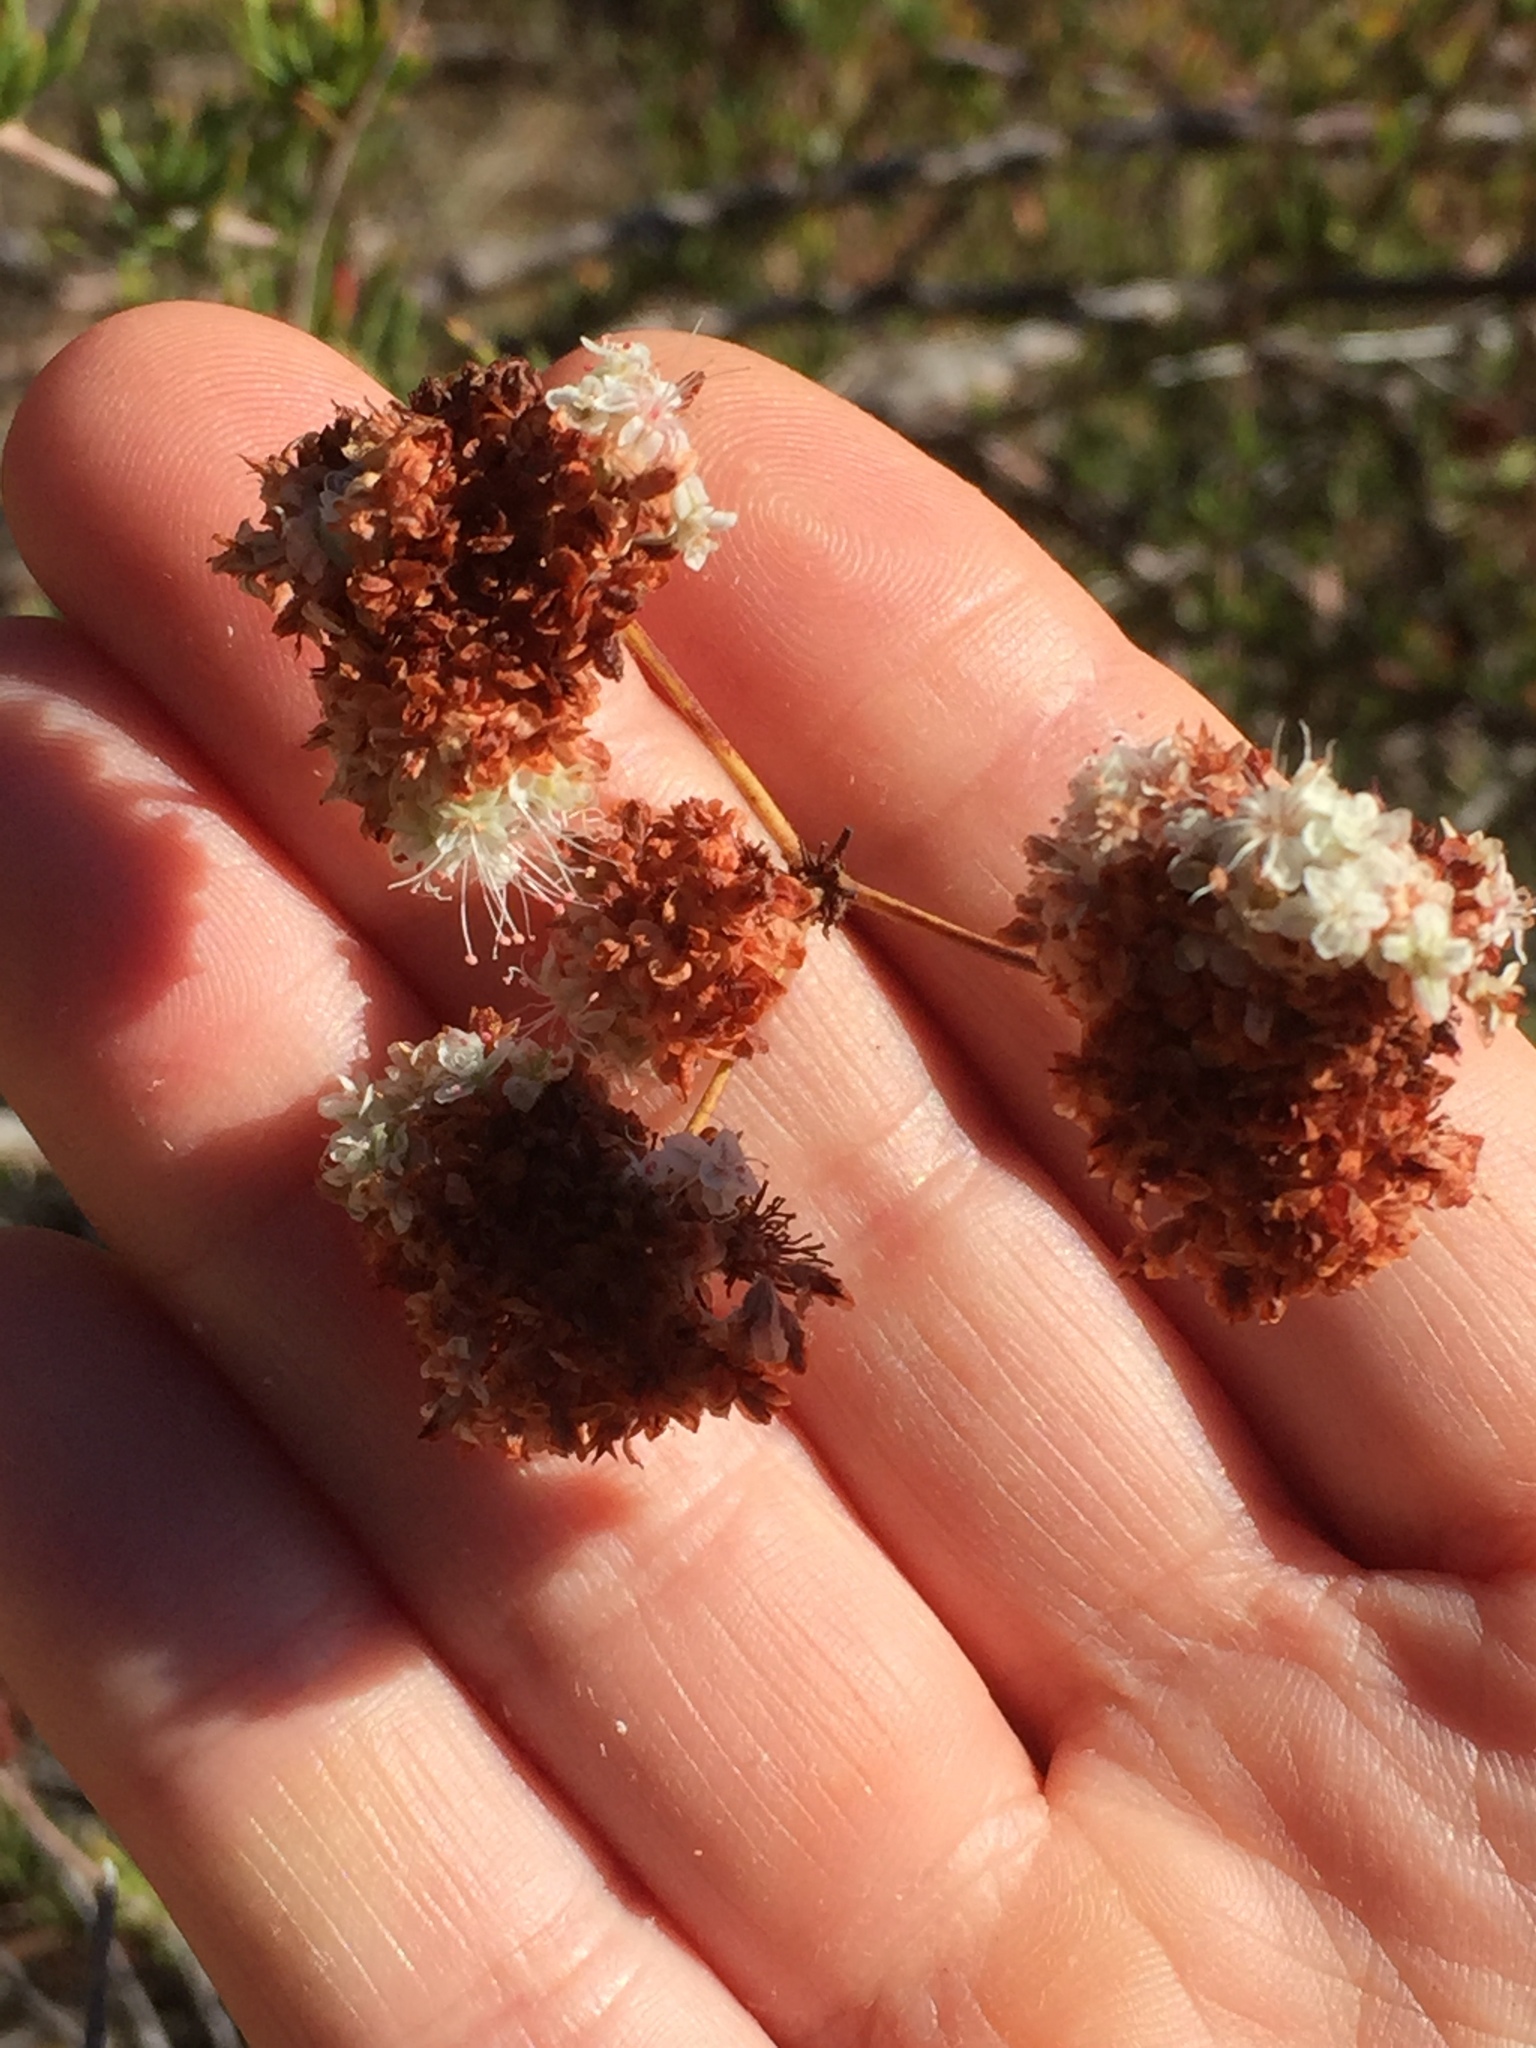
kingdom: Plantae
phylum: Tracheophyta
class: Magnoliopsida
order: Caryophyllales
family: Polygonaceae
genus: Eriogonum
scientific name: Eriogonum fasciculatum
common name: California wild buckwheat
